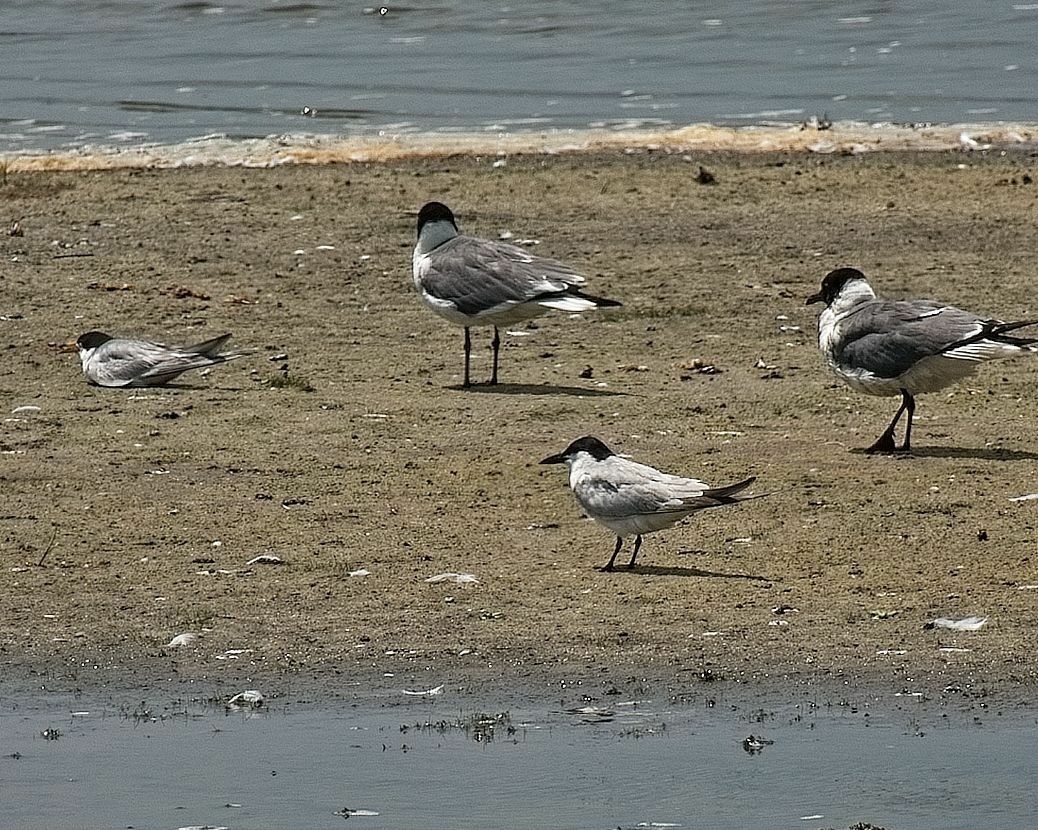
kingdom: Animalia
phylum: Chordata
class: Aves
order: Charadriiformes
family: Laridae
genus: Gelochelidon
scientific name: Gelochelidon nilotica
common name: Gull-billed tern
